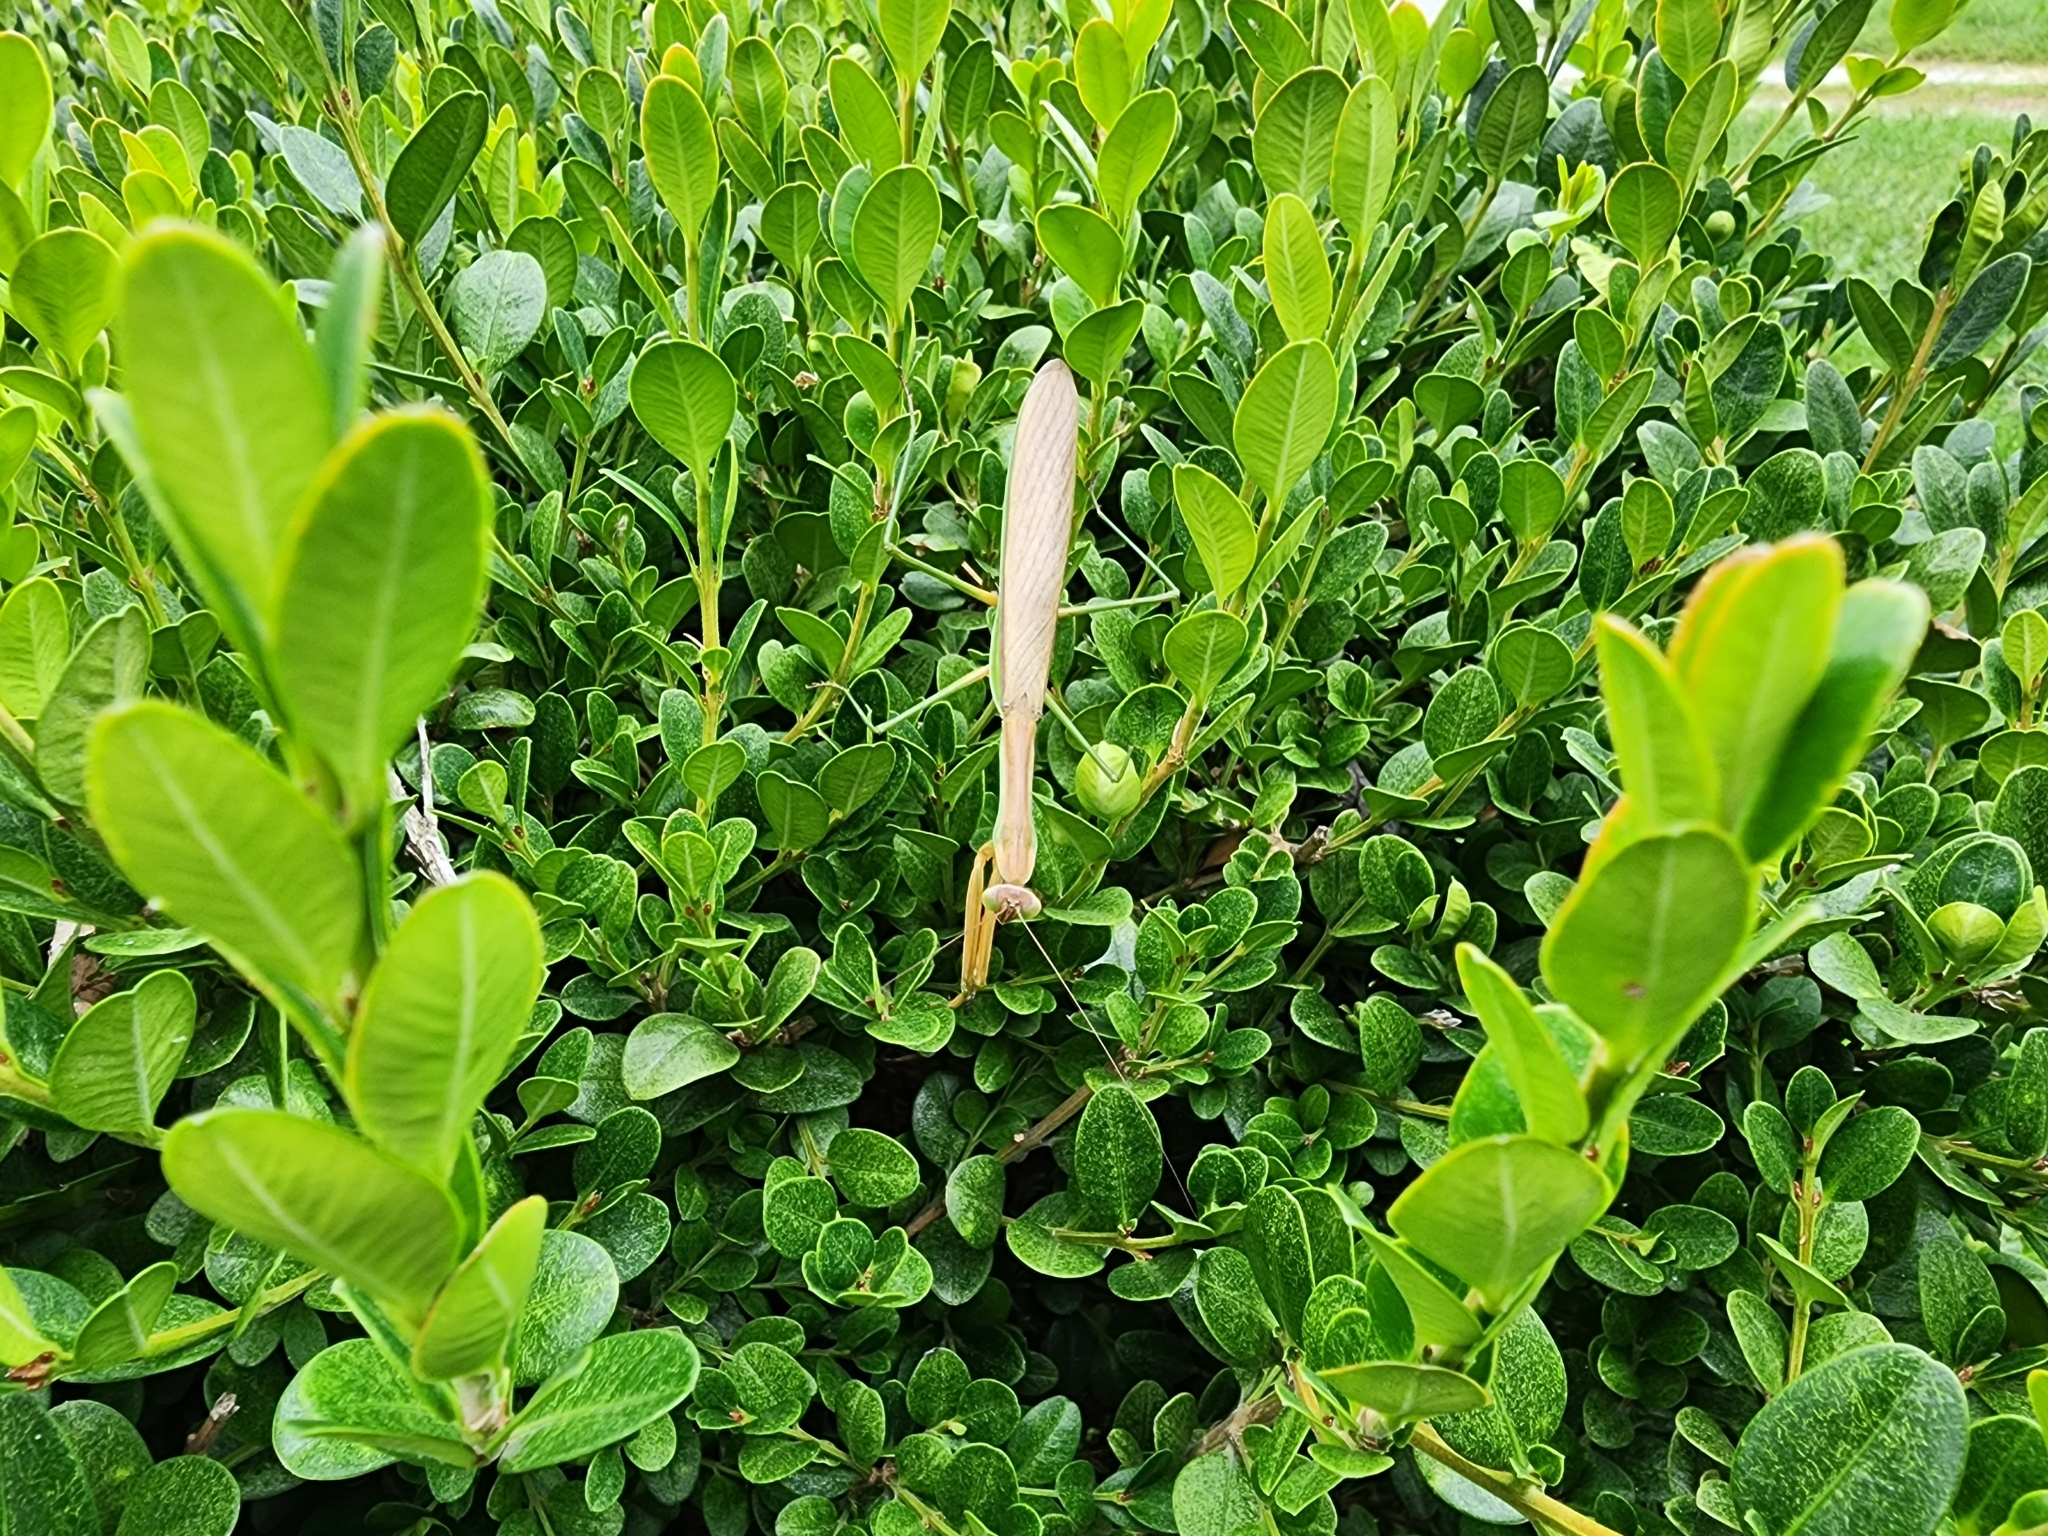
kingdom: Animalia
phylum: Arthropoda
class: Insecta
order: Mantodea
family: Mantidae
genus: Tenodera
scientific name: Tenodera sinensis
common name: Chinese mantis
